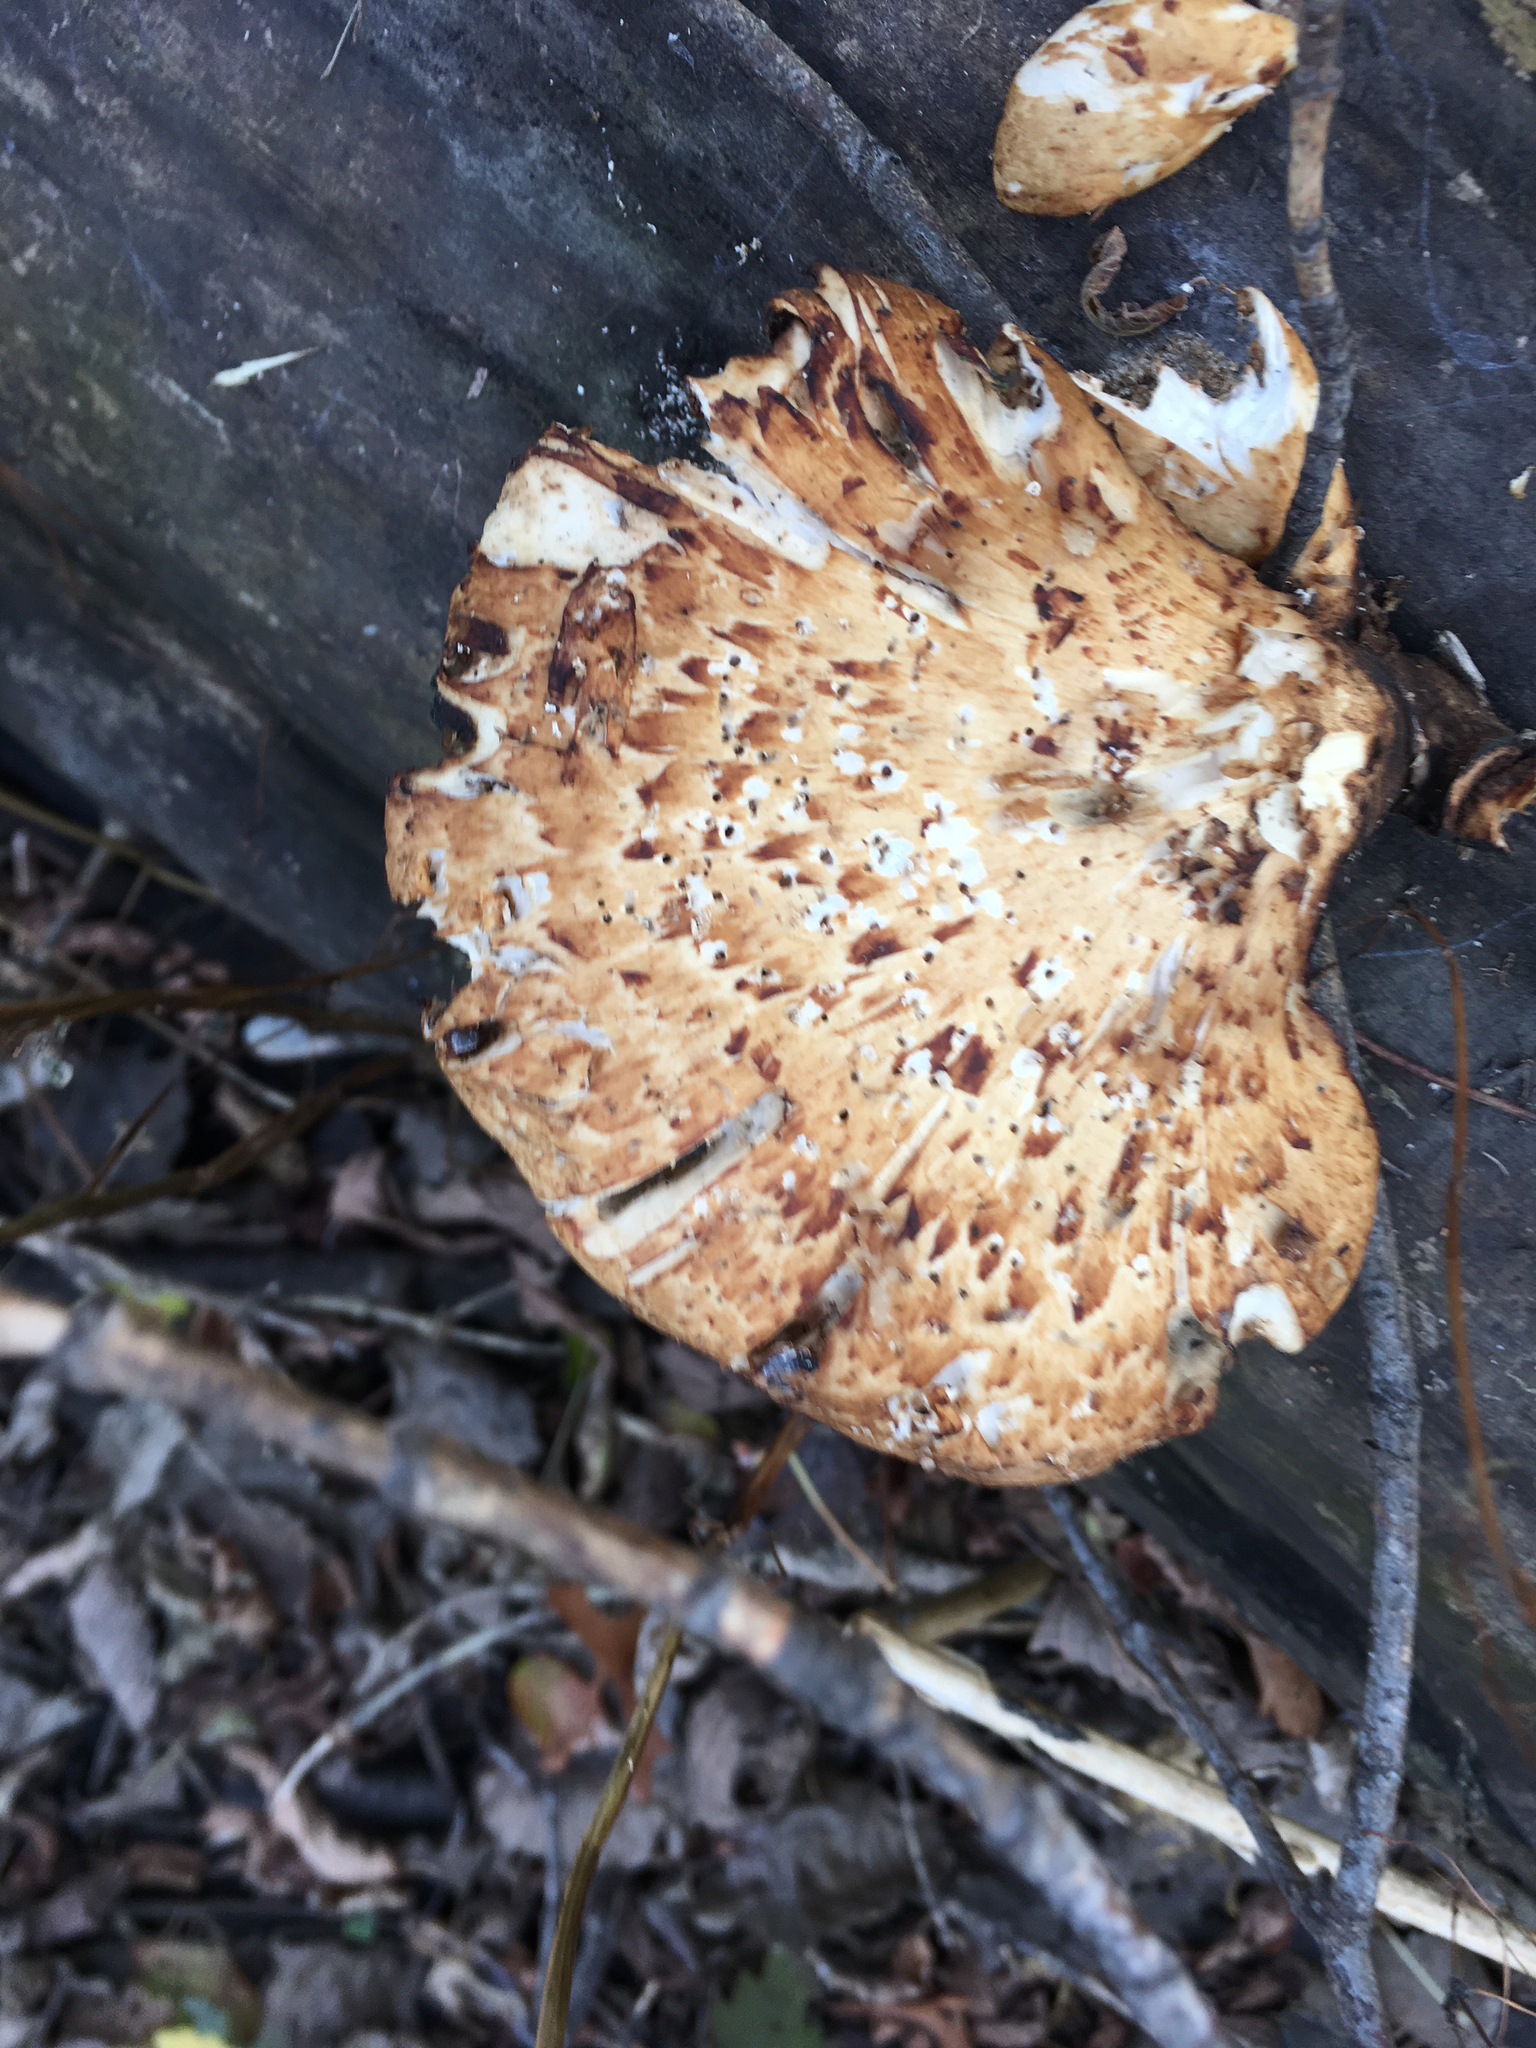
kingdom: Fungi
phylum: Basidiomycota
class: Agaricomycetes
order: Polyporales
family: Polyporaceae
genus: Cerioporus
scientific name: Cerioporus squamosus
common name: Dryad's saddle
